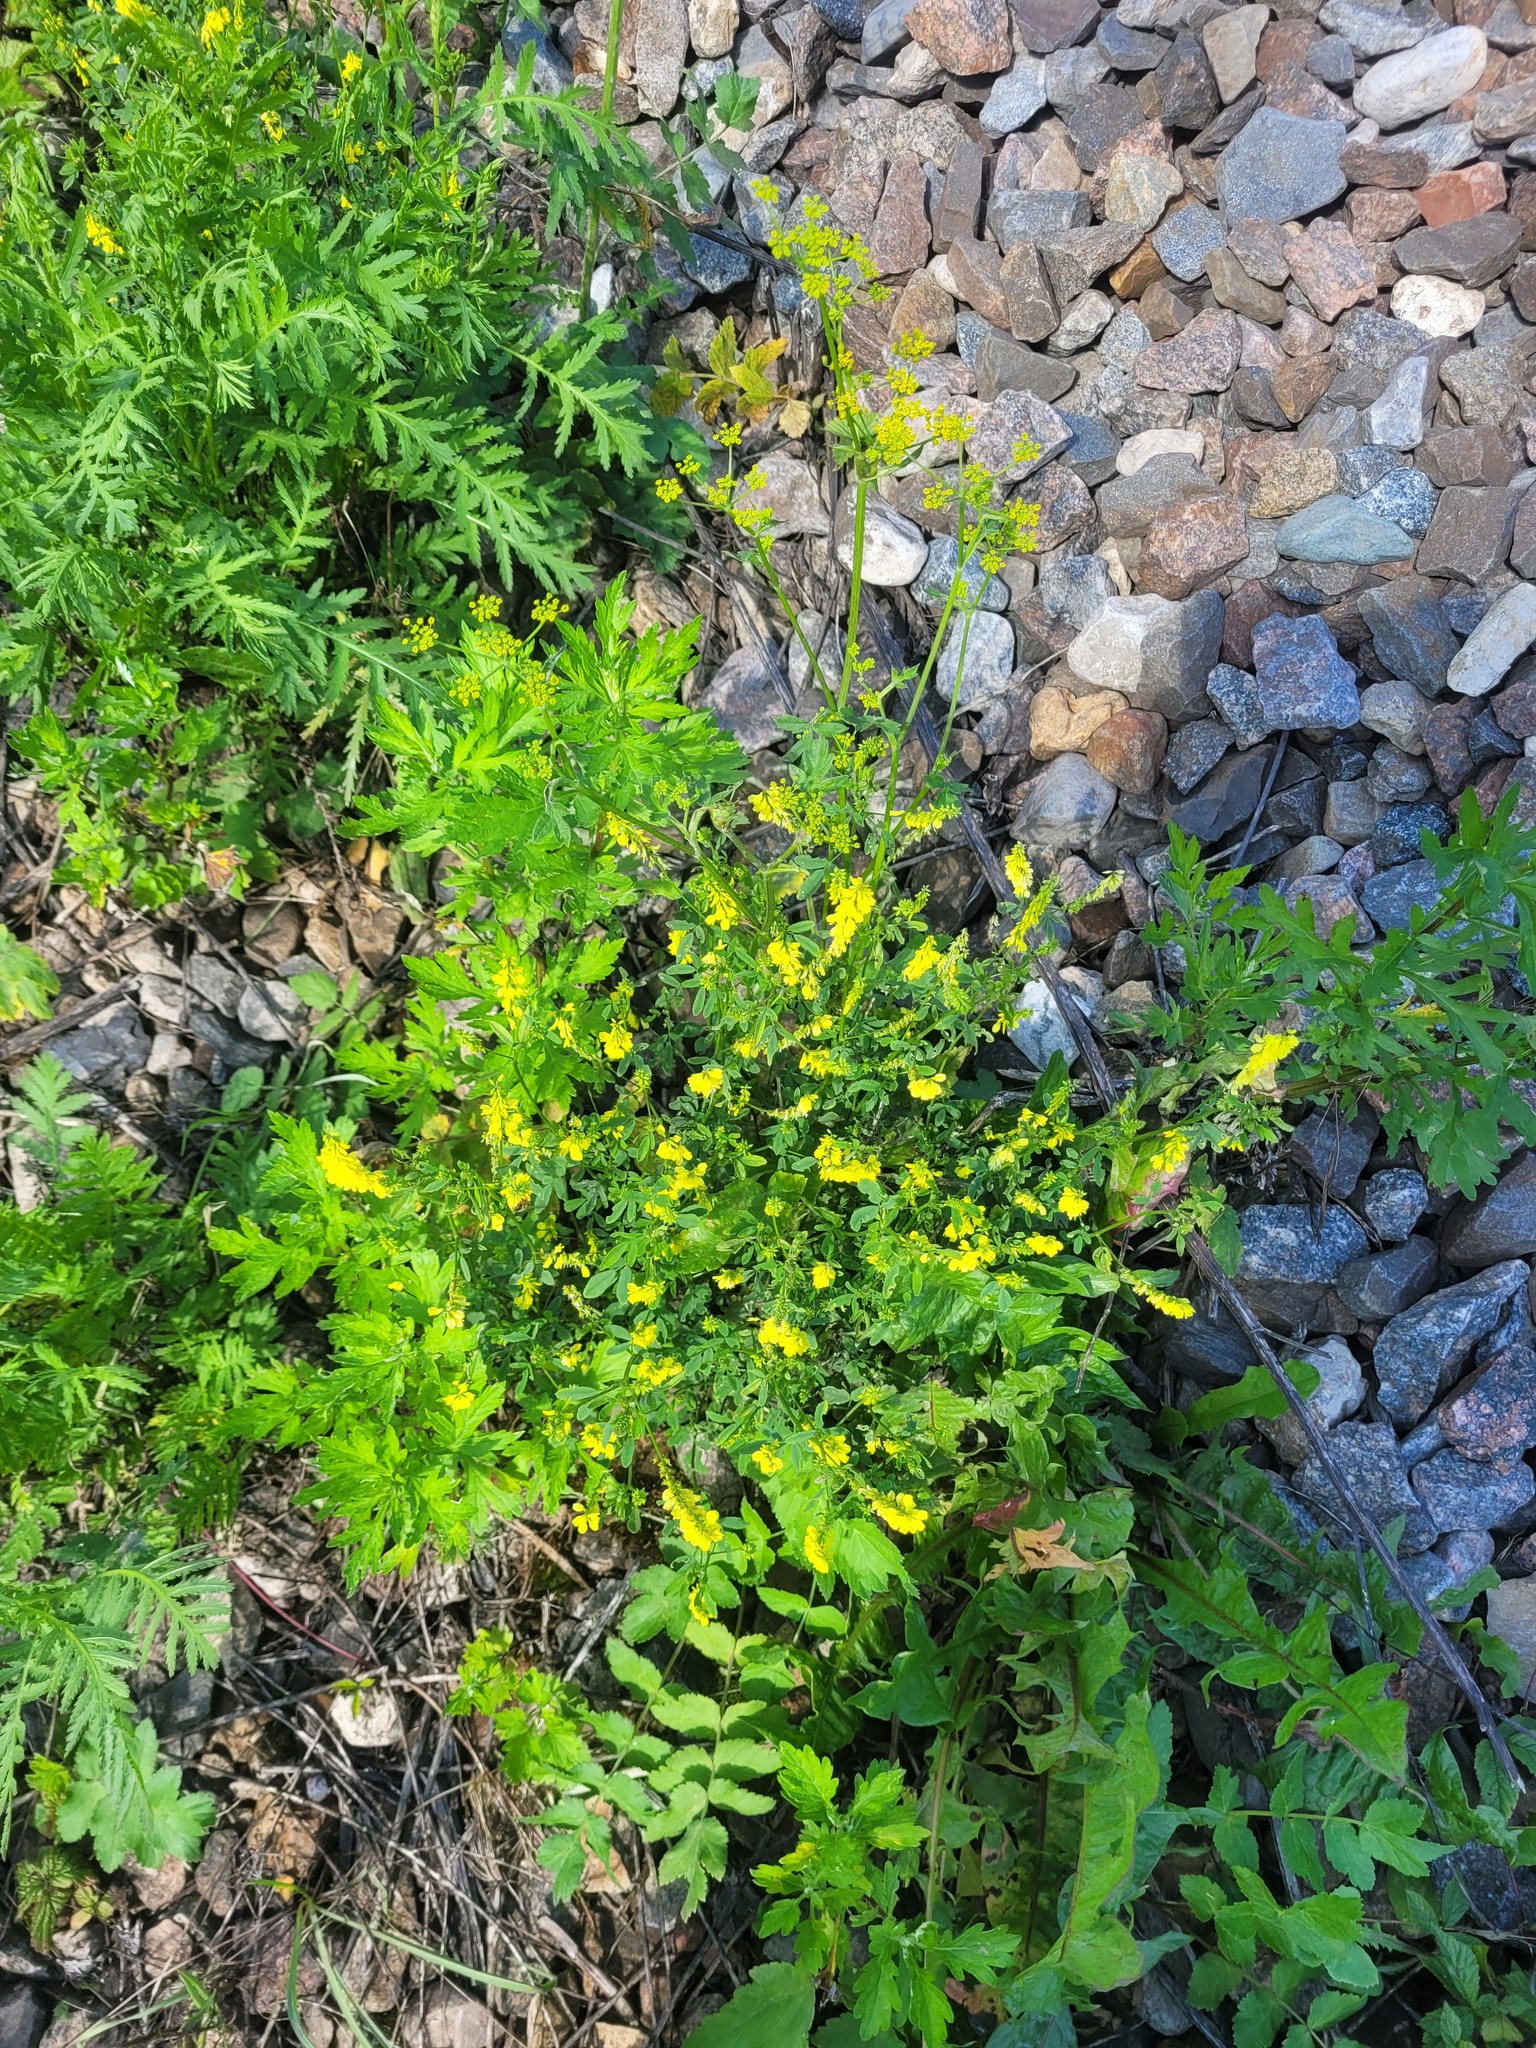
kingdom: Plantae
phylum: Tracheophyta
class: Magnoliopsida
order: Fabales
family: Fabaceae
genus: Melilotus
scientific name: Melilotus officinalis
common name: Sweetclover
